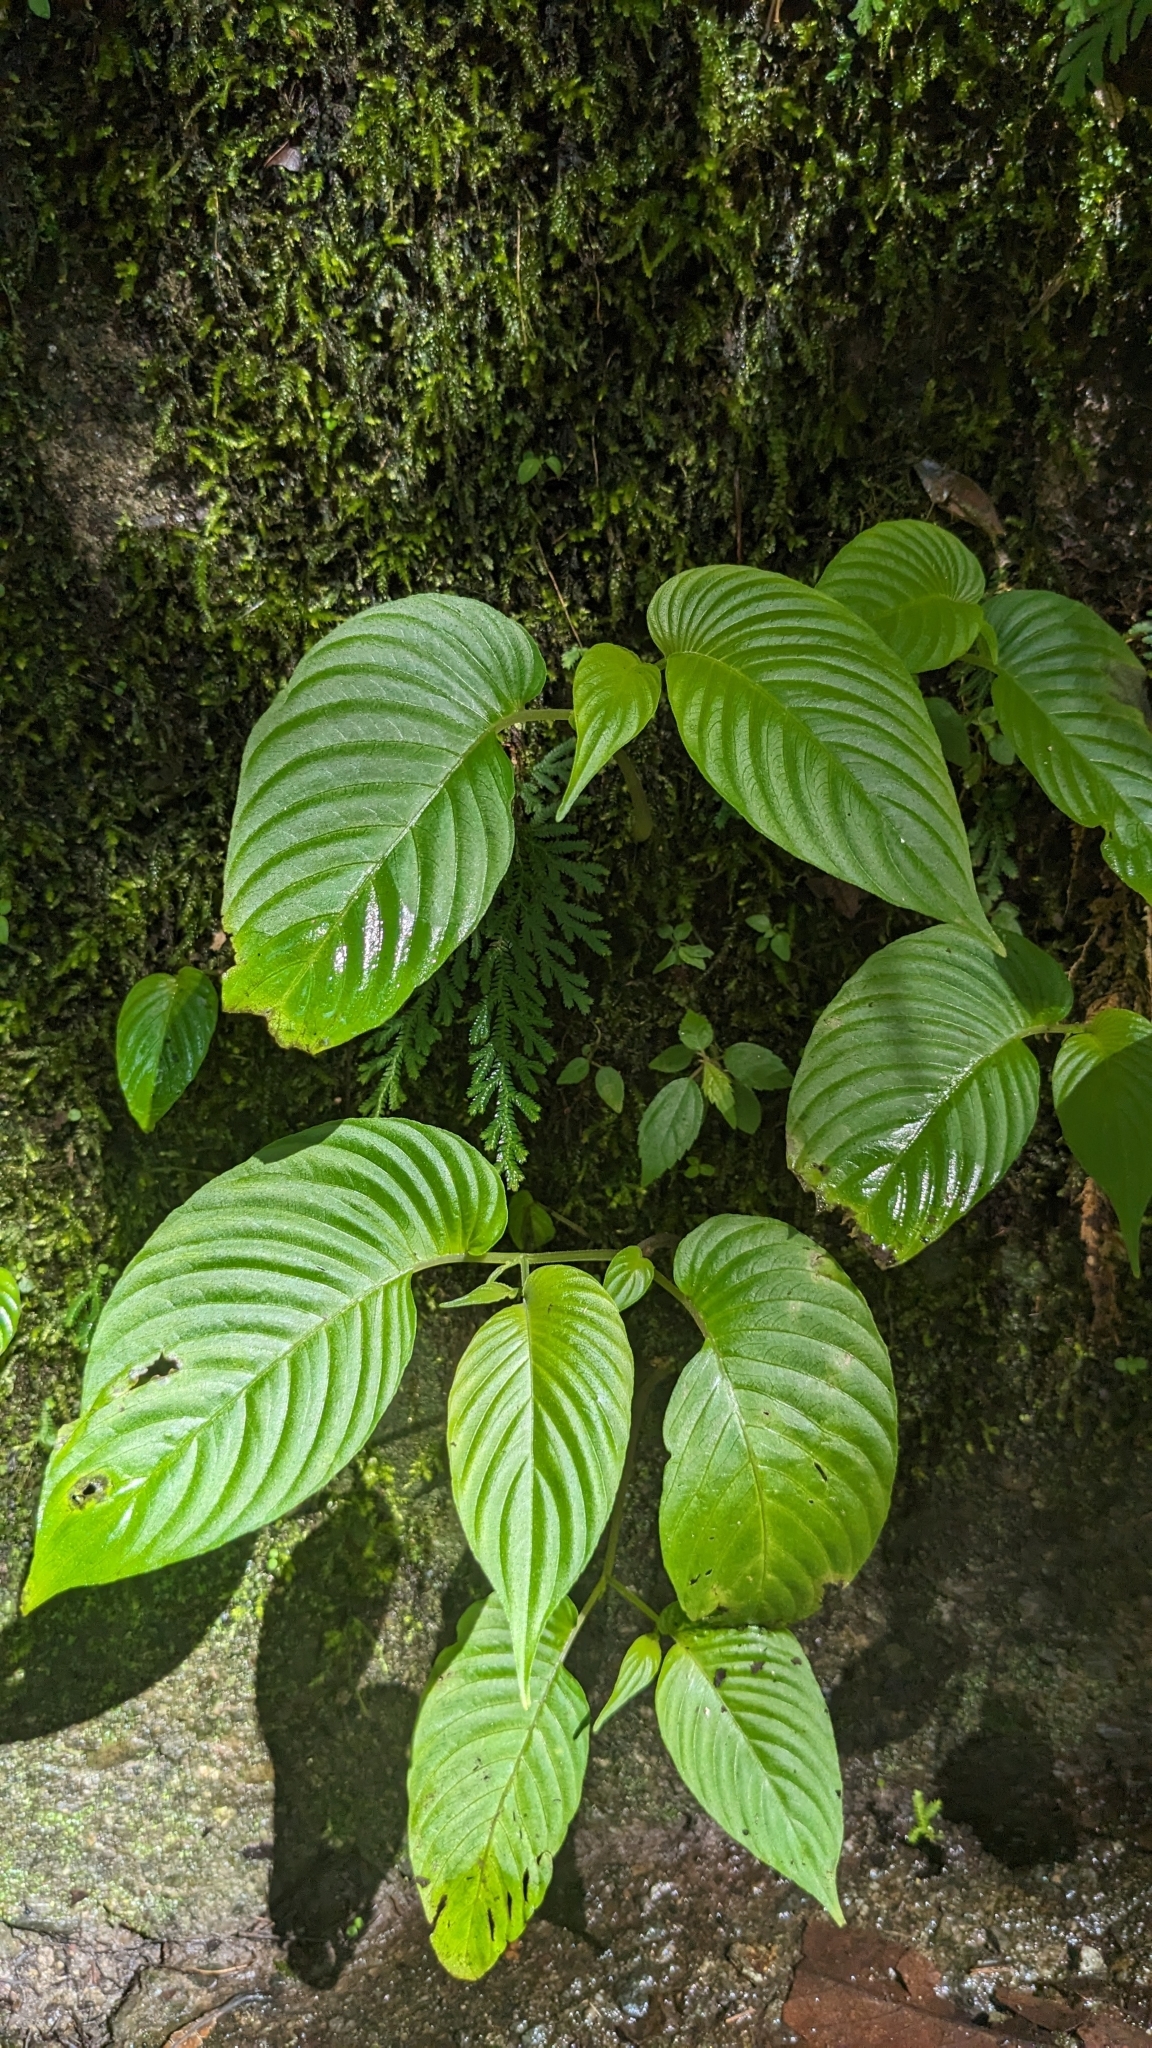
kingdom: Plantae
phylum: Tracheophyta
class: Magnoliopsida
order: Lamiales
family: Gesneriaceae
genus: Rhynchoglossum
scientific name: Rhynchoglossum obliquum
